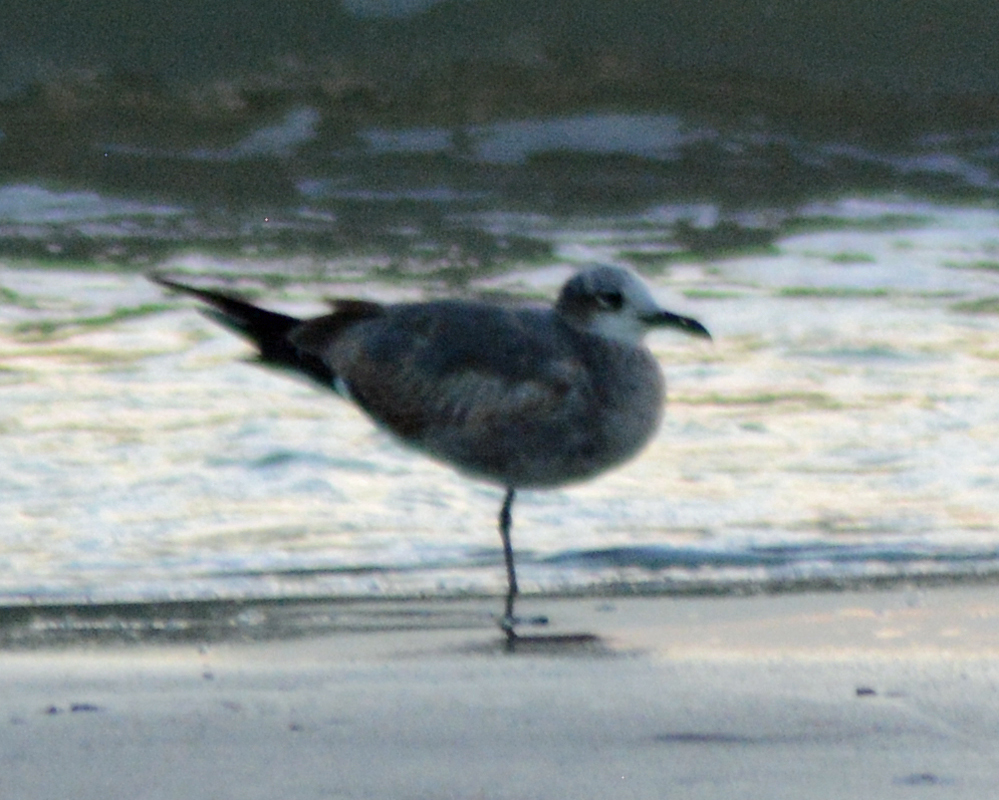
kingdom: Animalia
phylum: Chordata
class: Aves
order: Charadriiformes
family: Laridae
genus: Leucophaeus
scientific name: Leucophaeus atricilla
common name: Laughing gull
